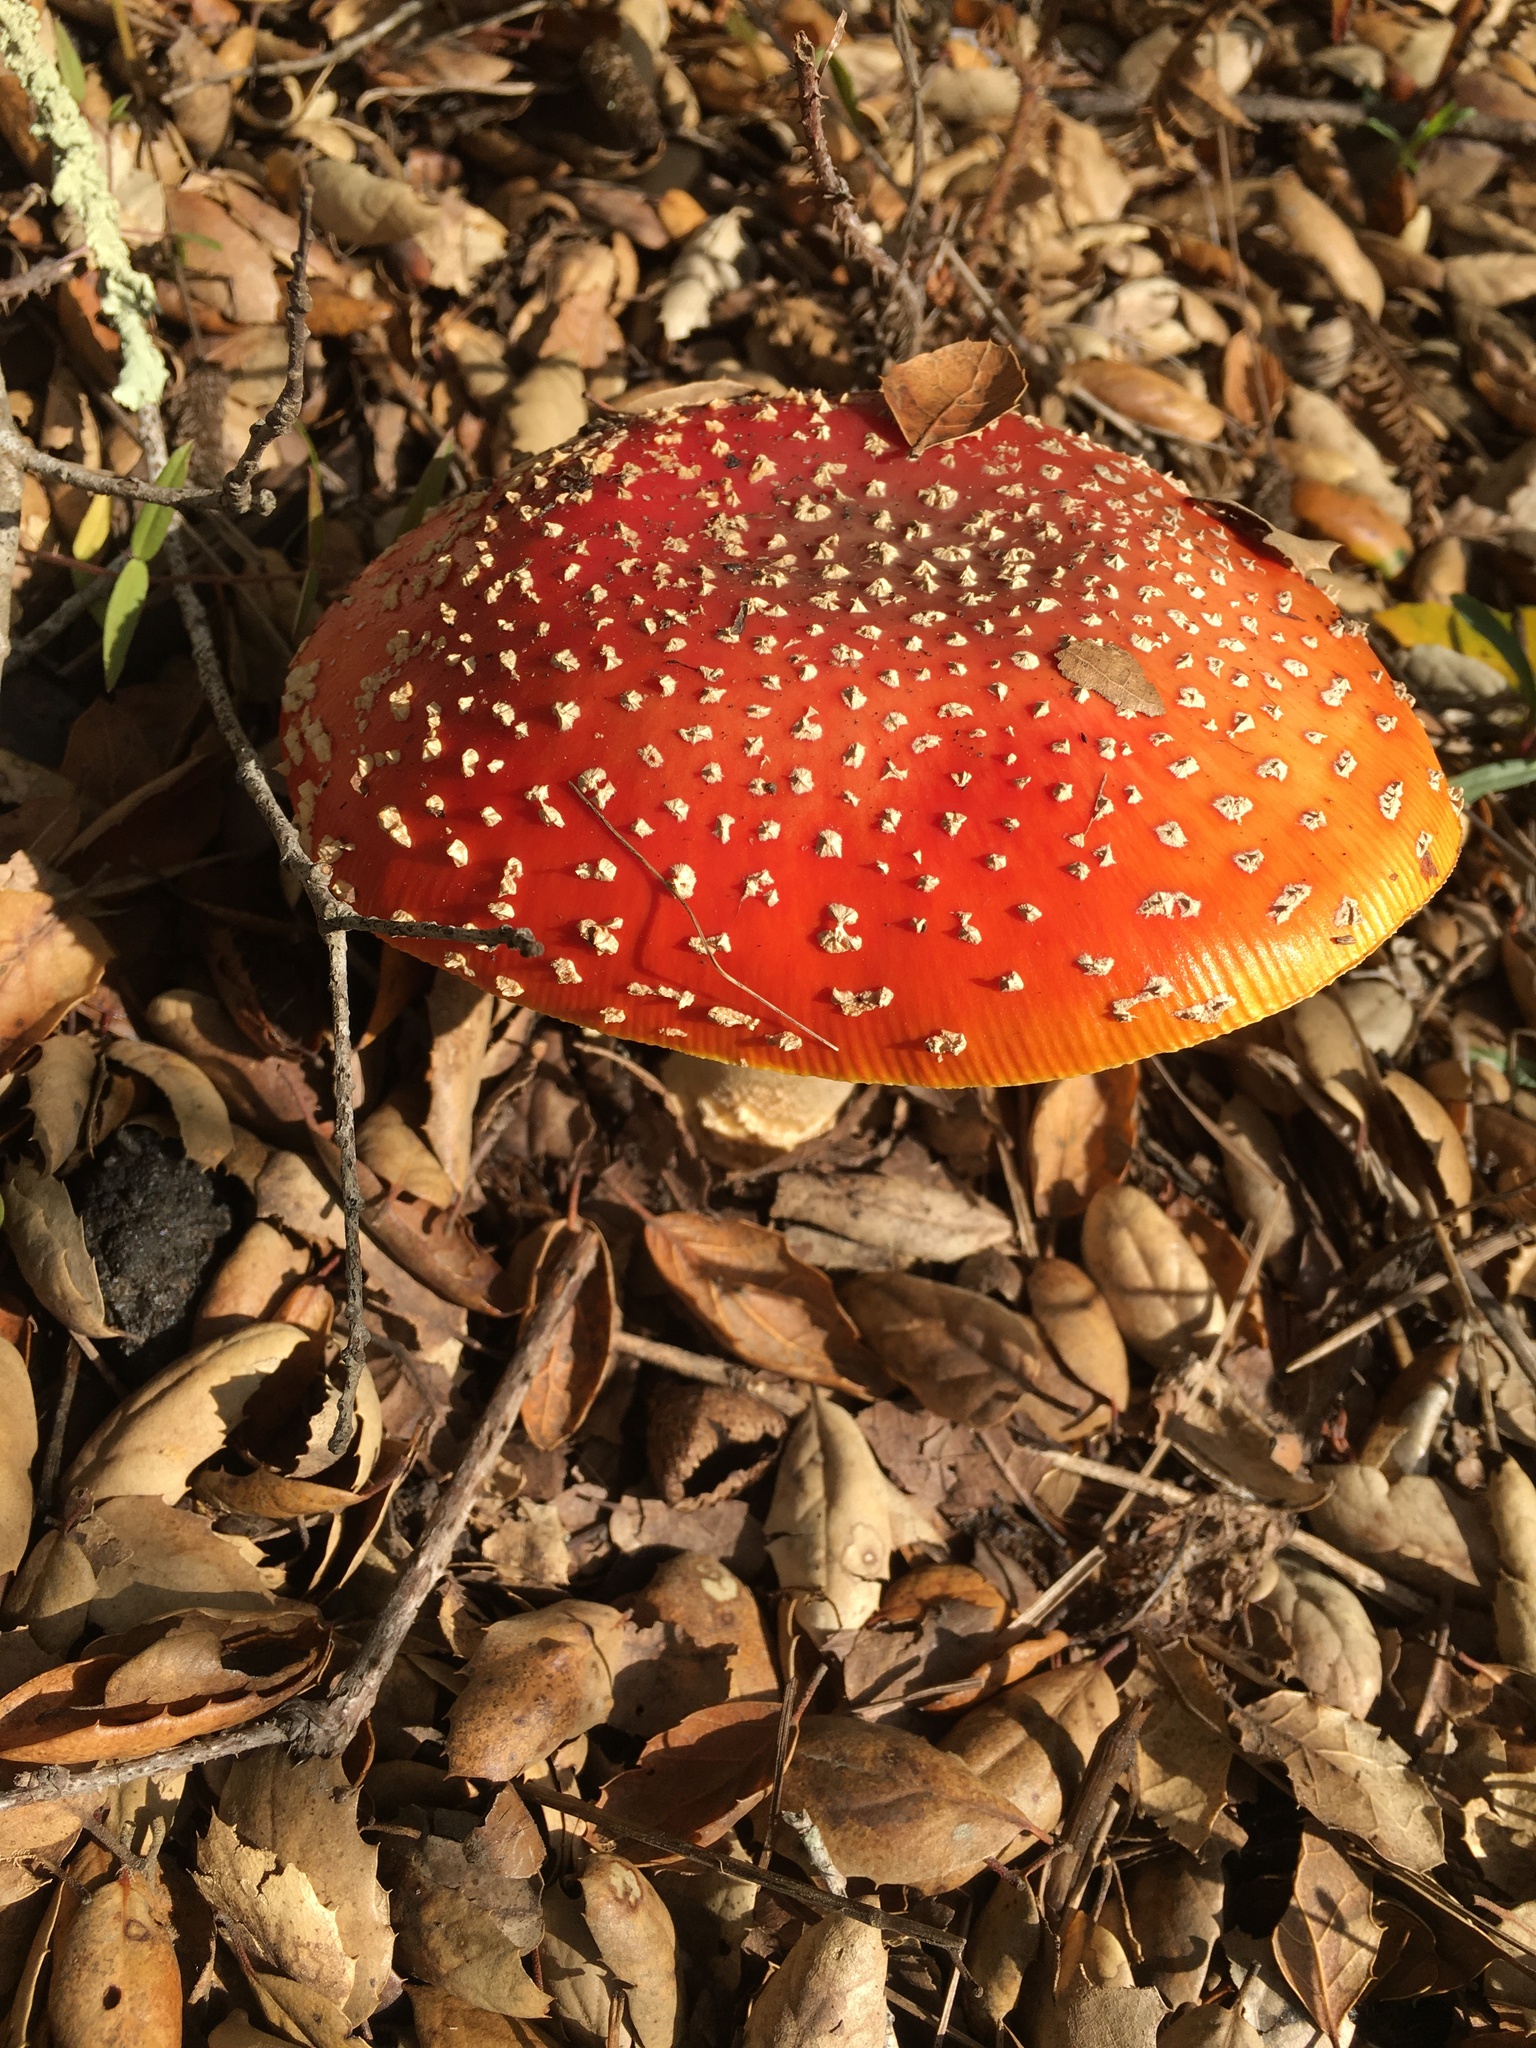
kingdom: Fungi
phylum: Basidiomycota
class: Agaricomycetes
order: Agaricales
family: Amanitaceae
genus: Amanita
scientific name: Amanita muscaria
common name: Fly agaric
